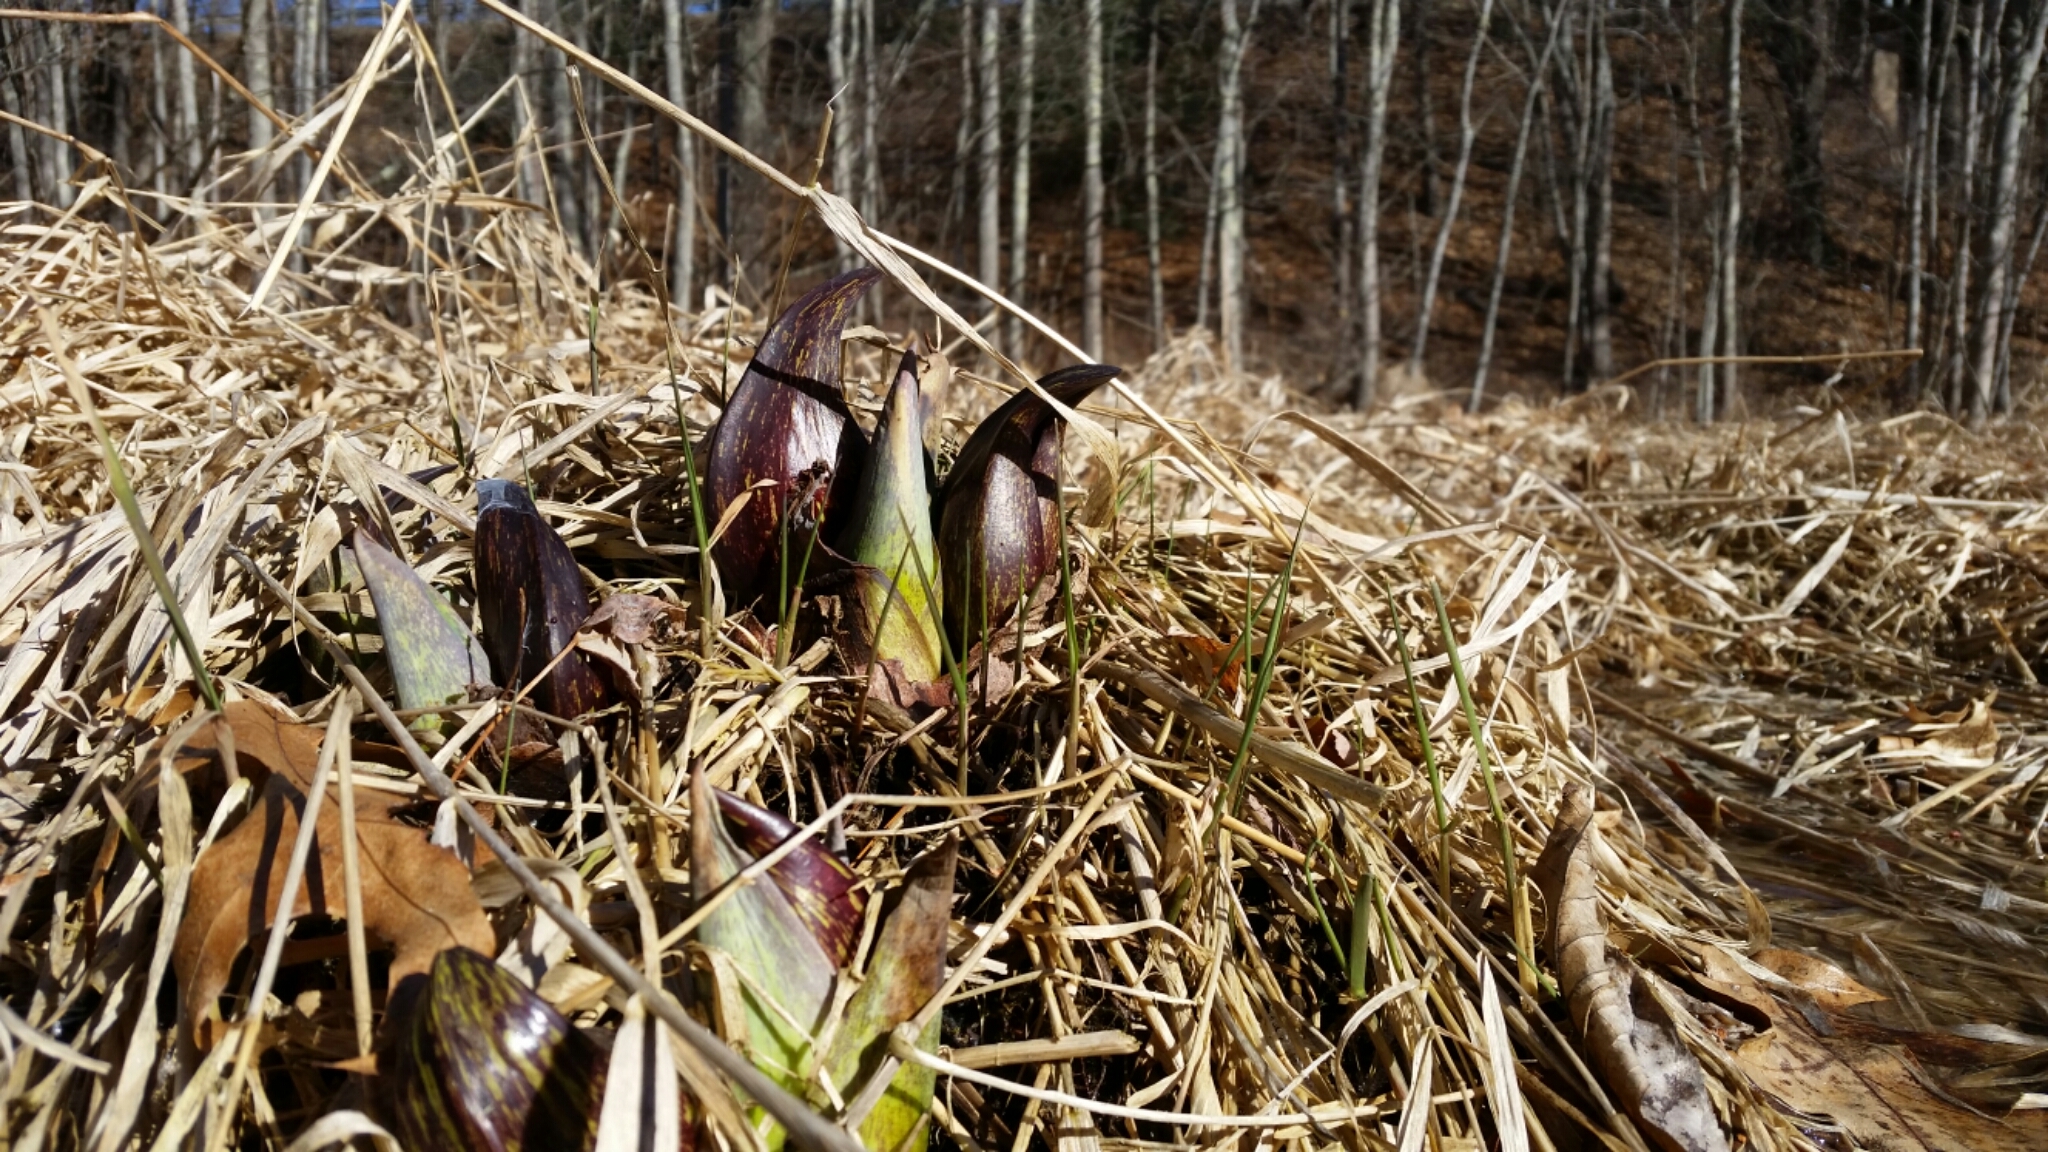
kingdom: Plantae
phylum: Tracheophyta
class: Liliopsida
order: Alismatales
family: Araceae
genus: Symplocarpus
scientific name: Symplocarpus foetidus
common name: Eastern skunk cabbage
